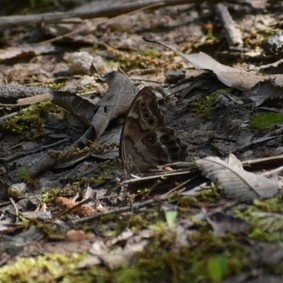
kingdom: Animalia
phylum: Arthropoda
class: Insecta
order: Lepidoptera
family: Nymphalidae
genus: Enodia
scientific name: Enodia portlandia
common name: Southern pearly-eye
